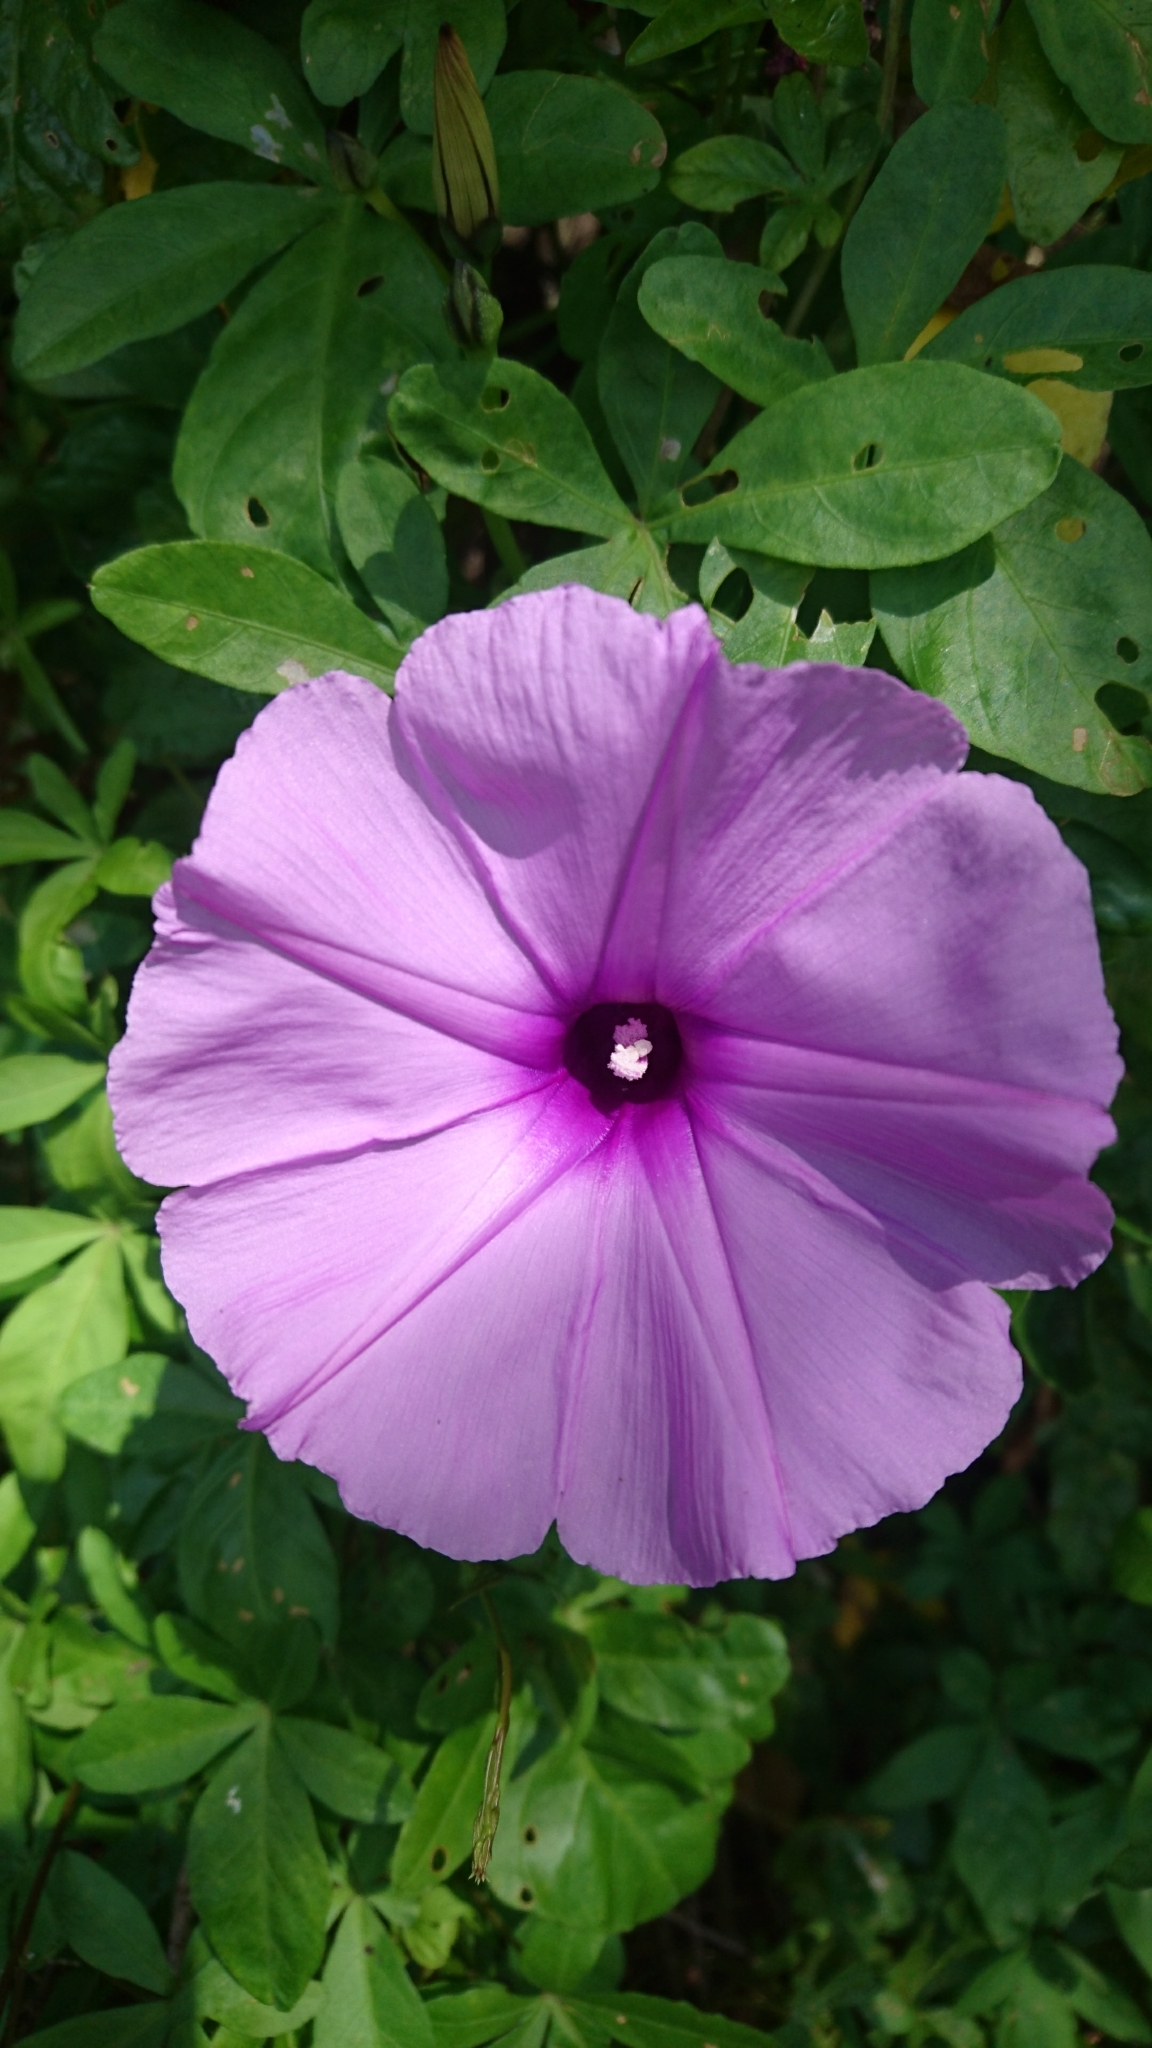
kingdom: Plantae
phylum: Tracheophyta
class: Magnoliopsida
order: Solanales
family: Convolvulaceae
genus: Ipomoea
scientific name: Ipomoea cairica
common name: Mile a minute vine
